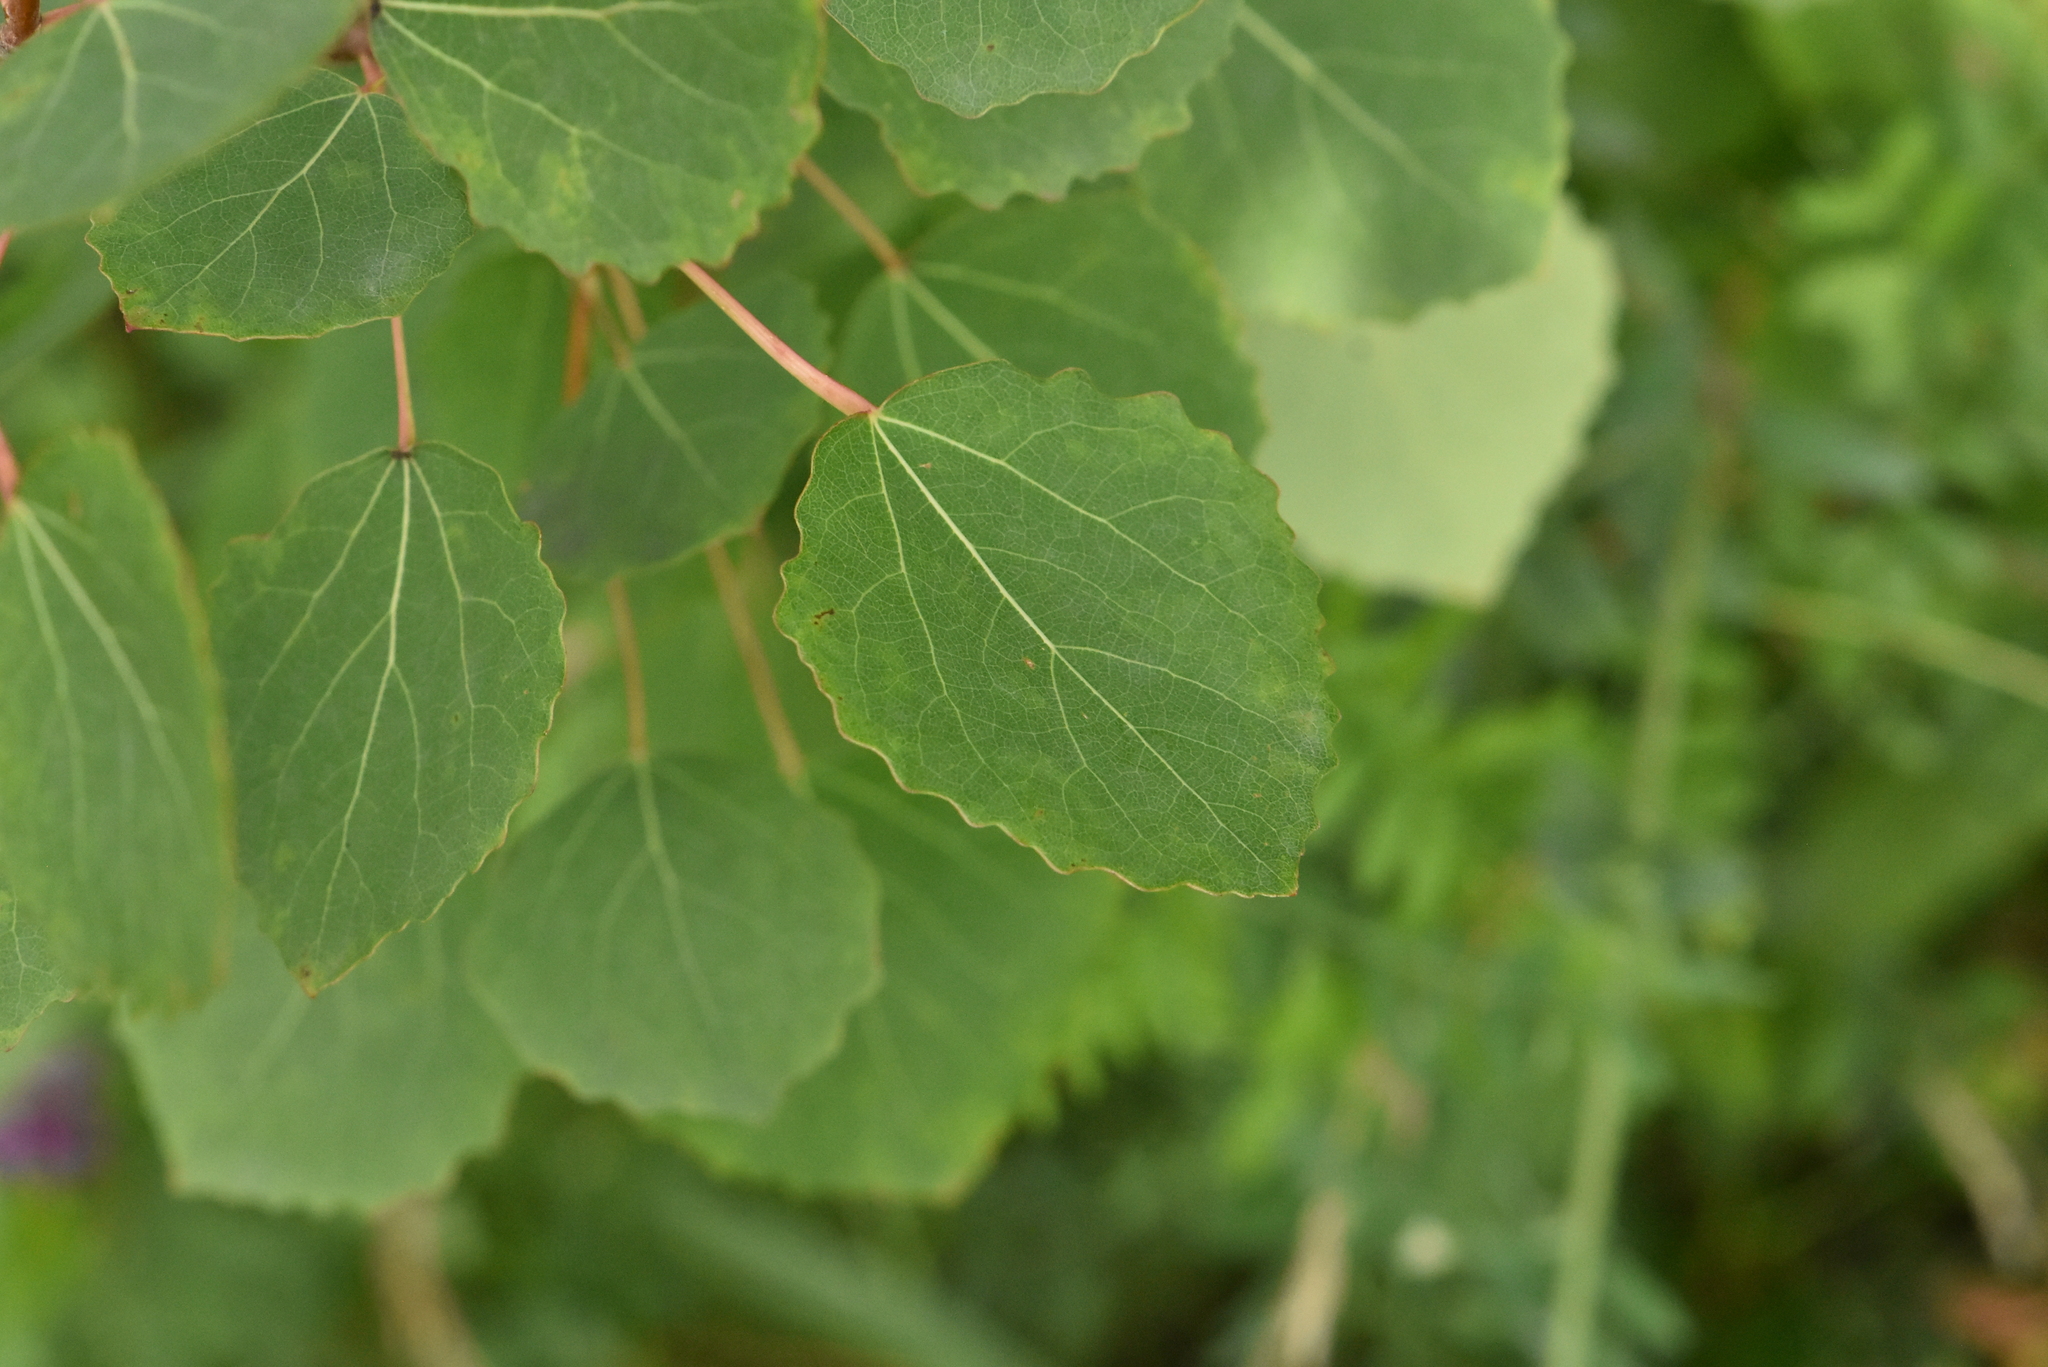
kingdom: Plantae
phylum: Tracheophyta
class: Magnoliopsida
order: Malpighiales
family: Salicaceae
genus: Populus
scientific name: Populus tremula
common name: European aspen
